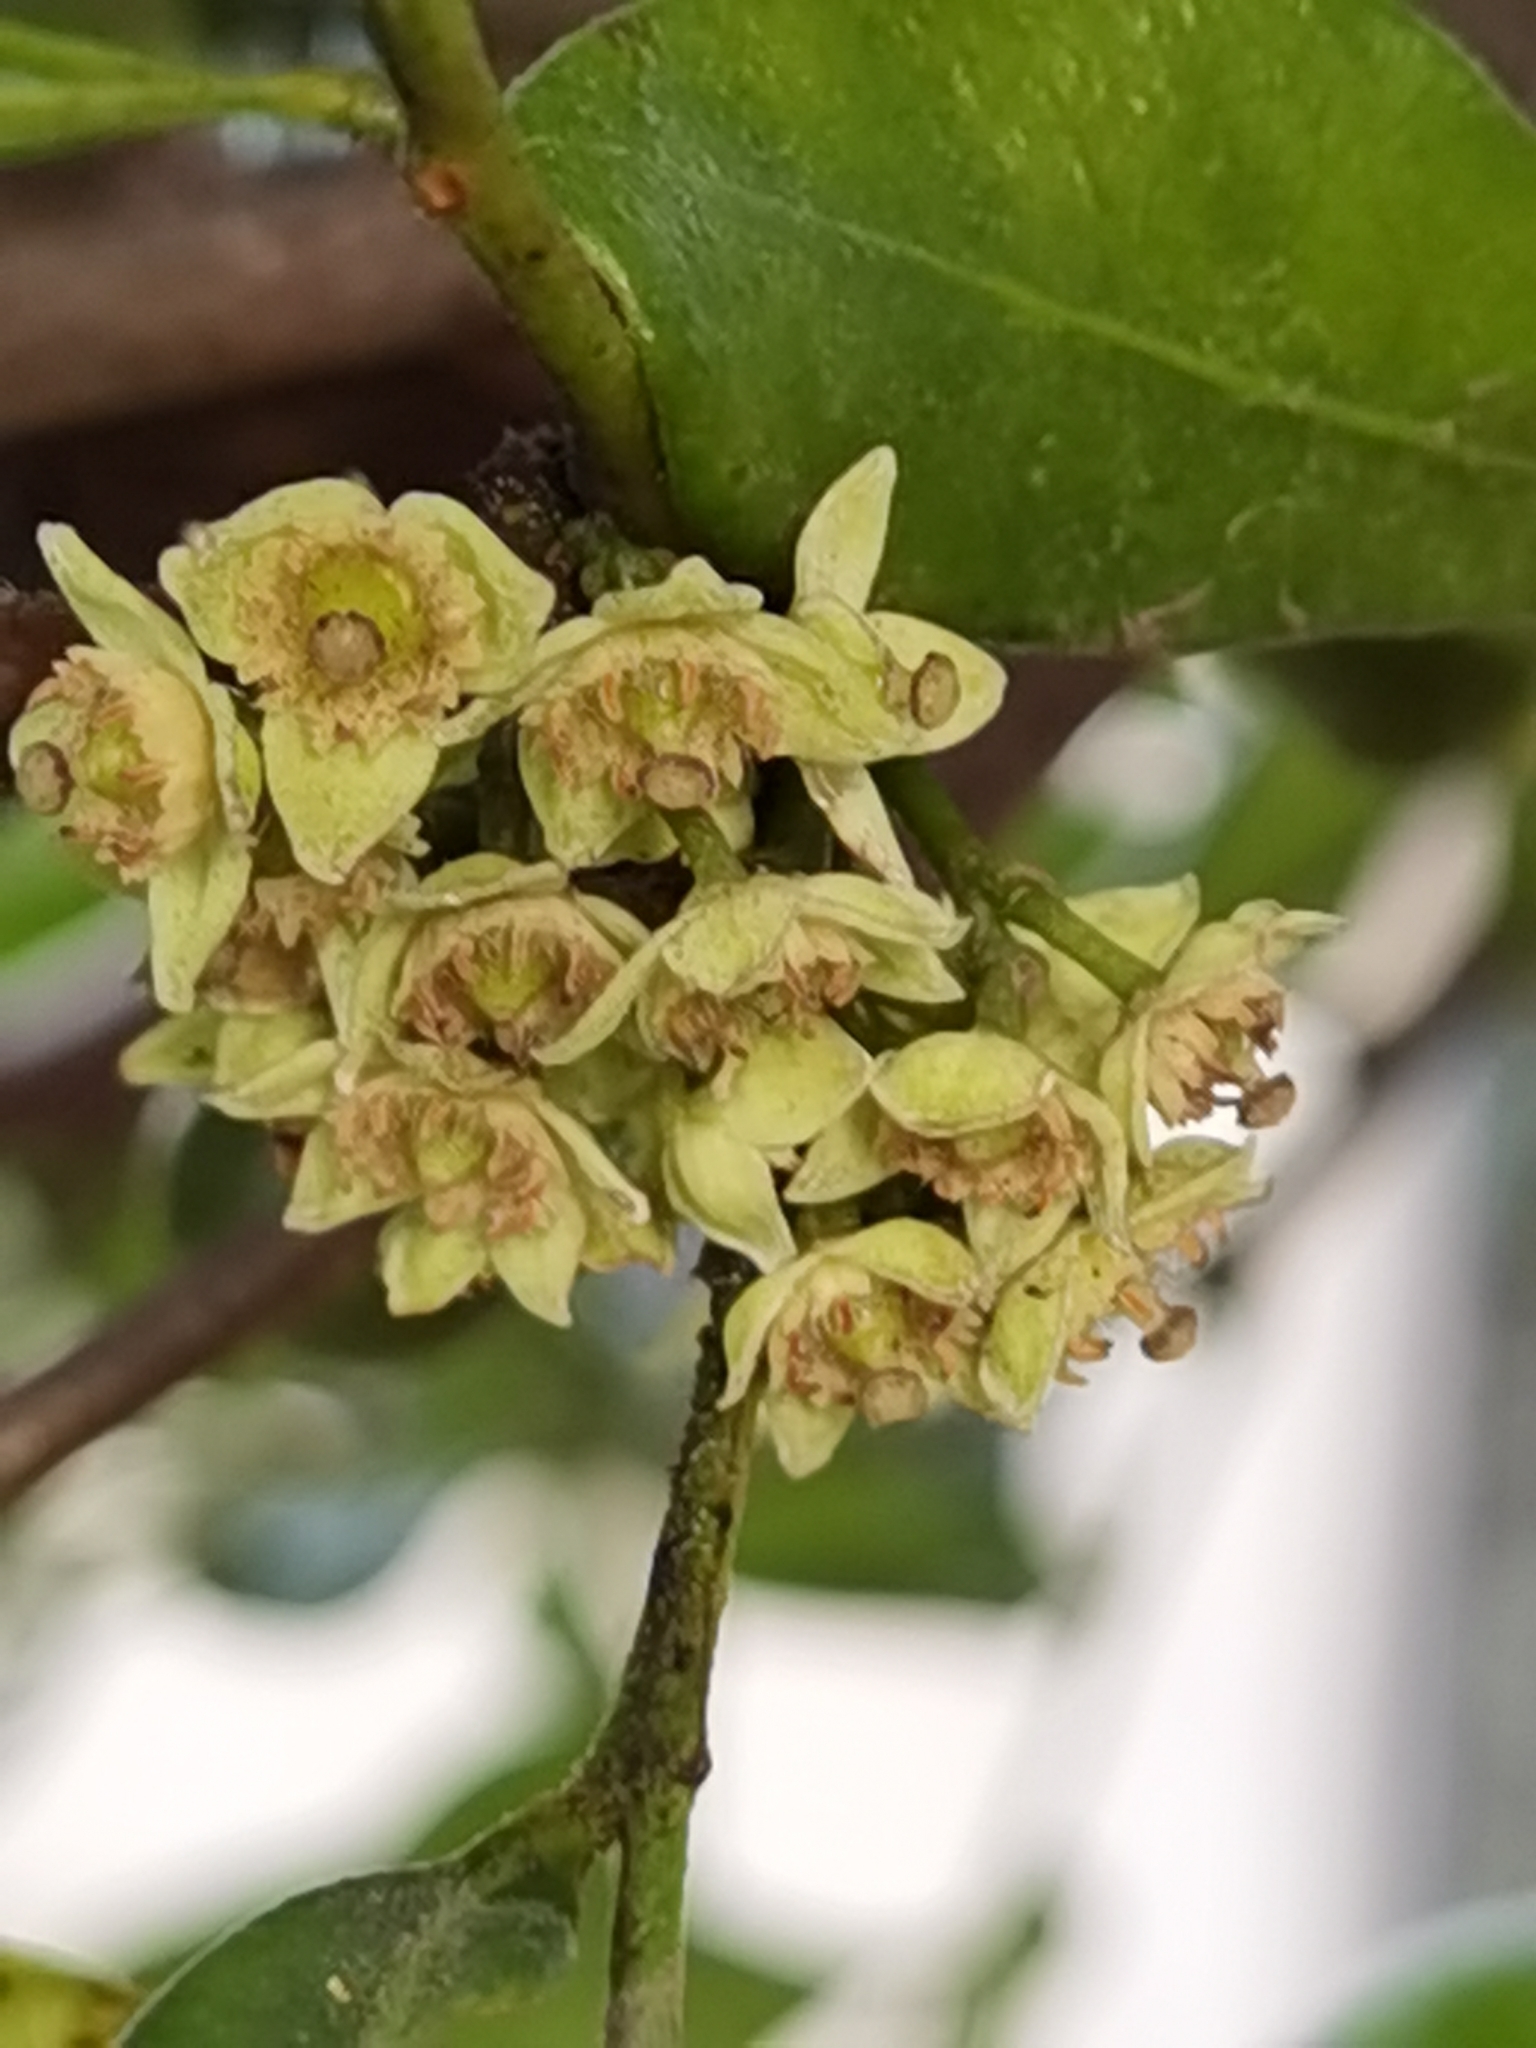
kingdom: Plantae
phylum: Tracheophyta
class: Magnoliopsida
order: Sapindales
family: Meliaceae
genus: Trichilia
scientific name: Trichilia havanensis
